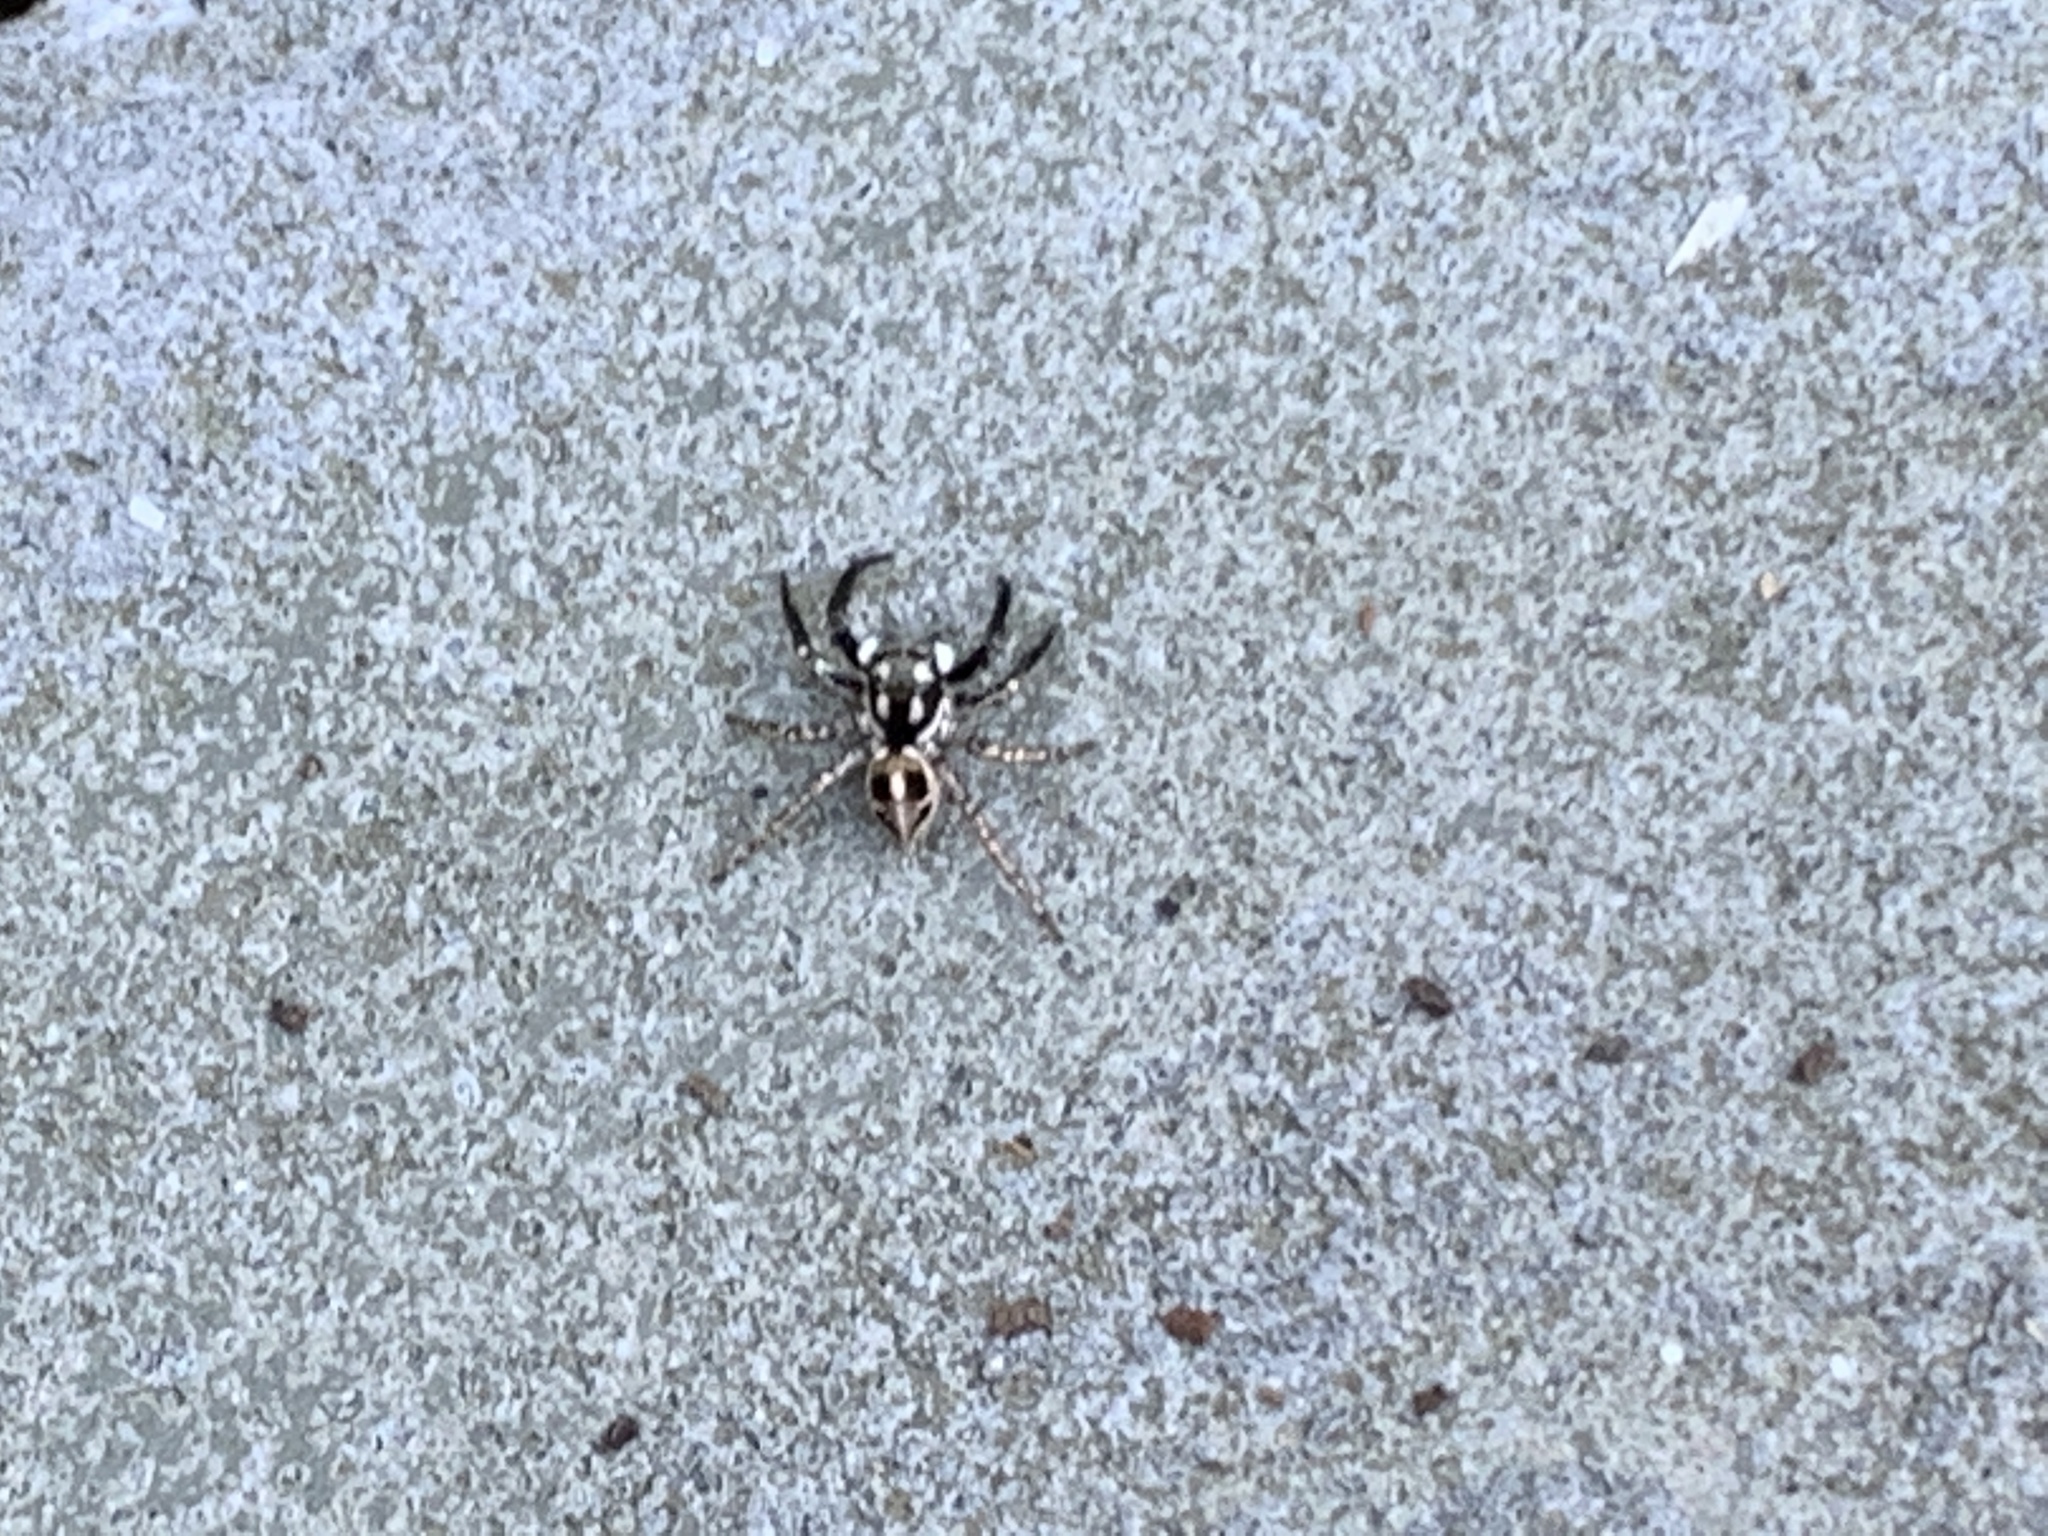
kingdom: Animalia
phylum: Arthropoda
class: Arachnida
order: Araneae
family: Salticidae
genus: Anasaitis
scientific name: Anasaitis canosa
